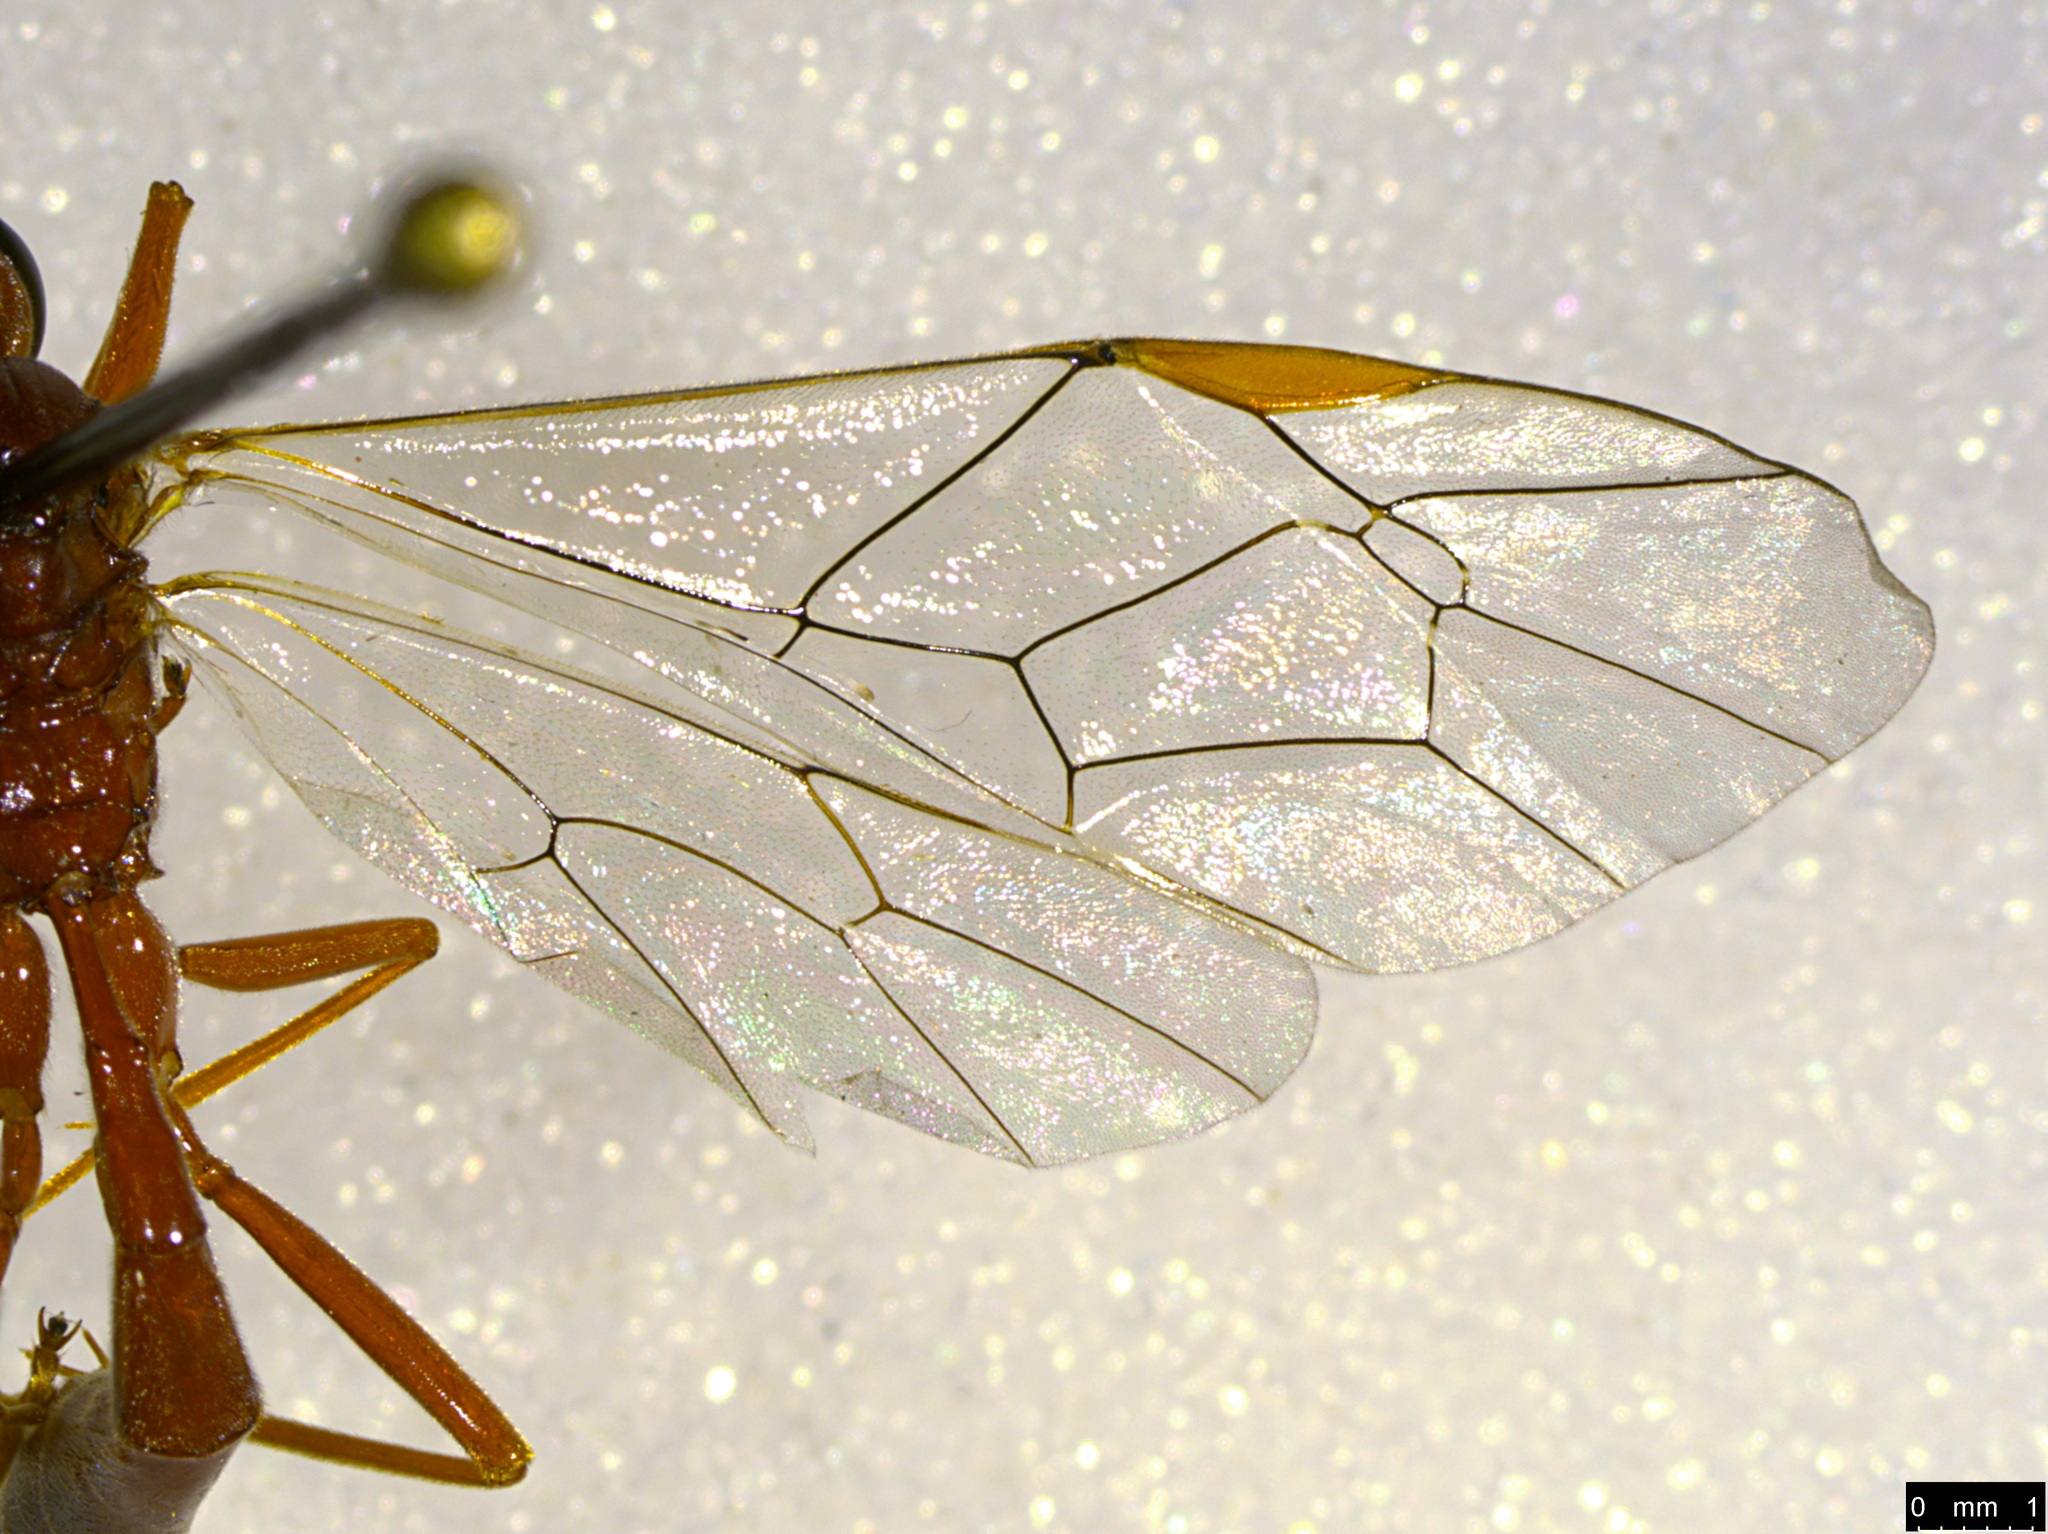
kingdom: Animalia
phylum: Arthropoda
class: Insecta
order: Hymenoptera
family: Ichneumonidae
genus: Megaceria
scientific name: Megaceria pagana
